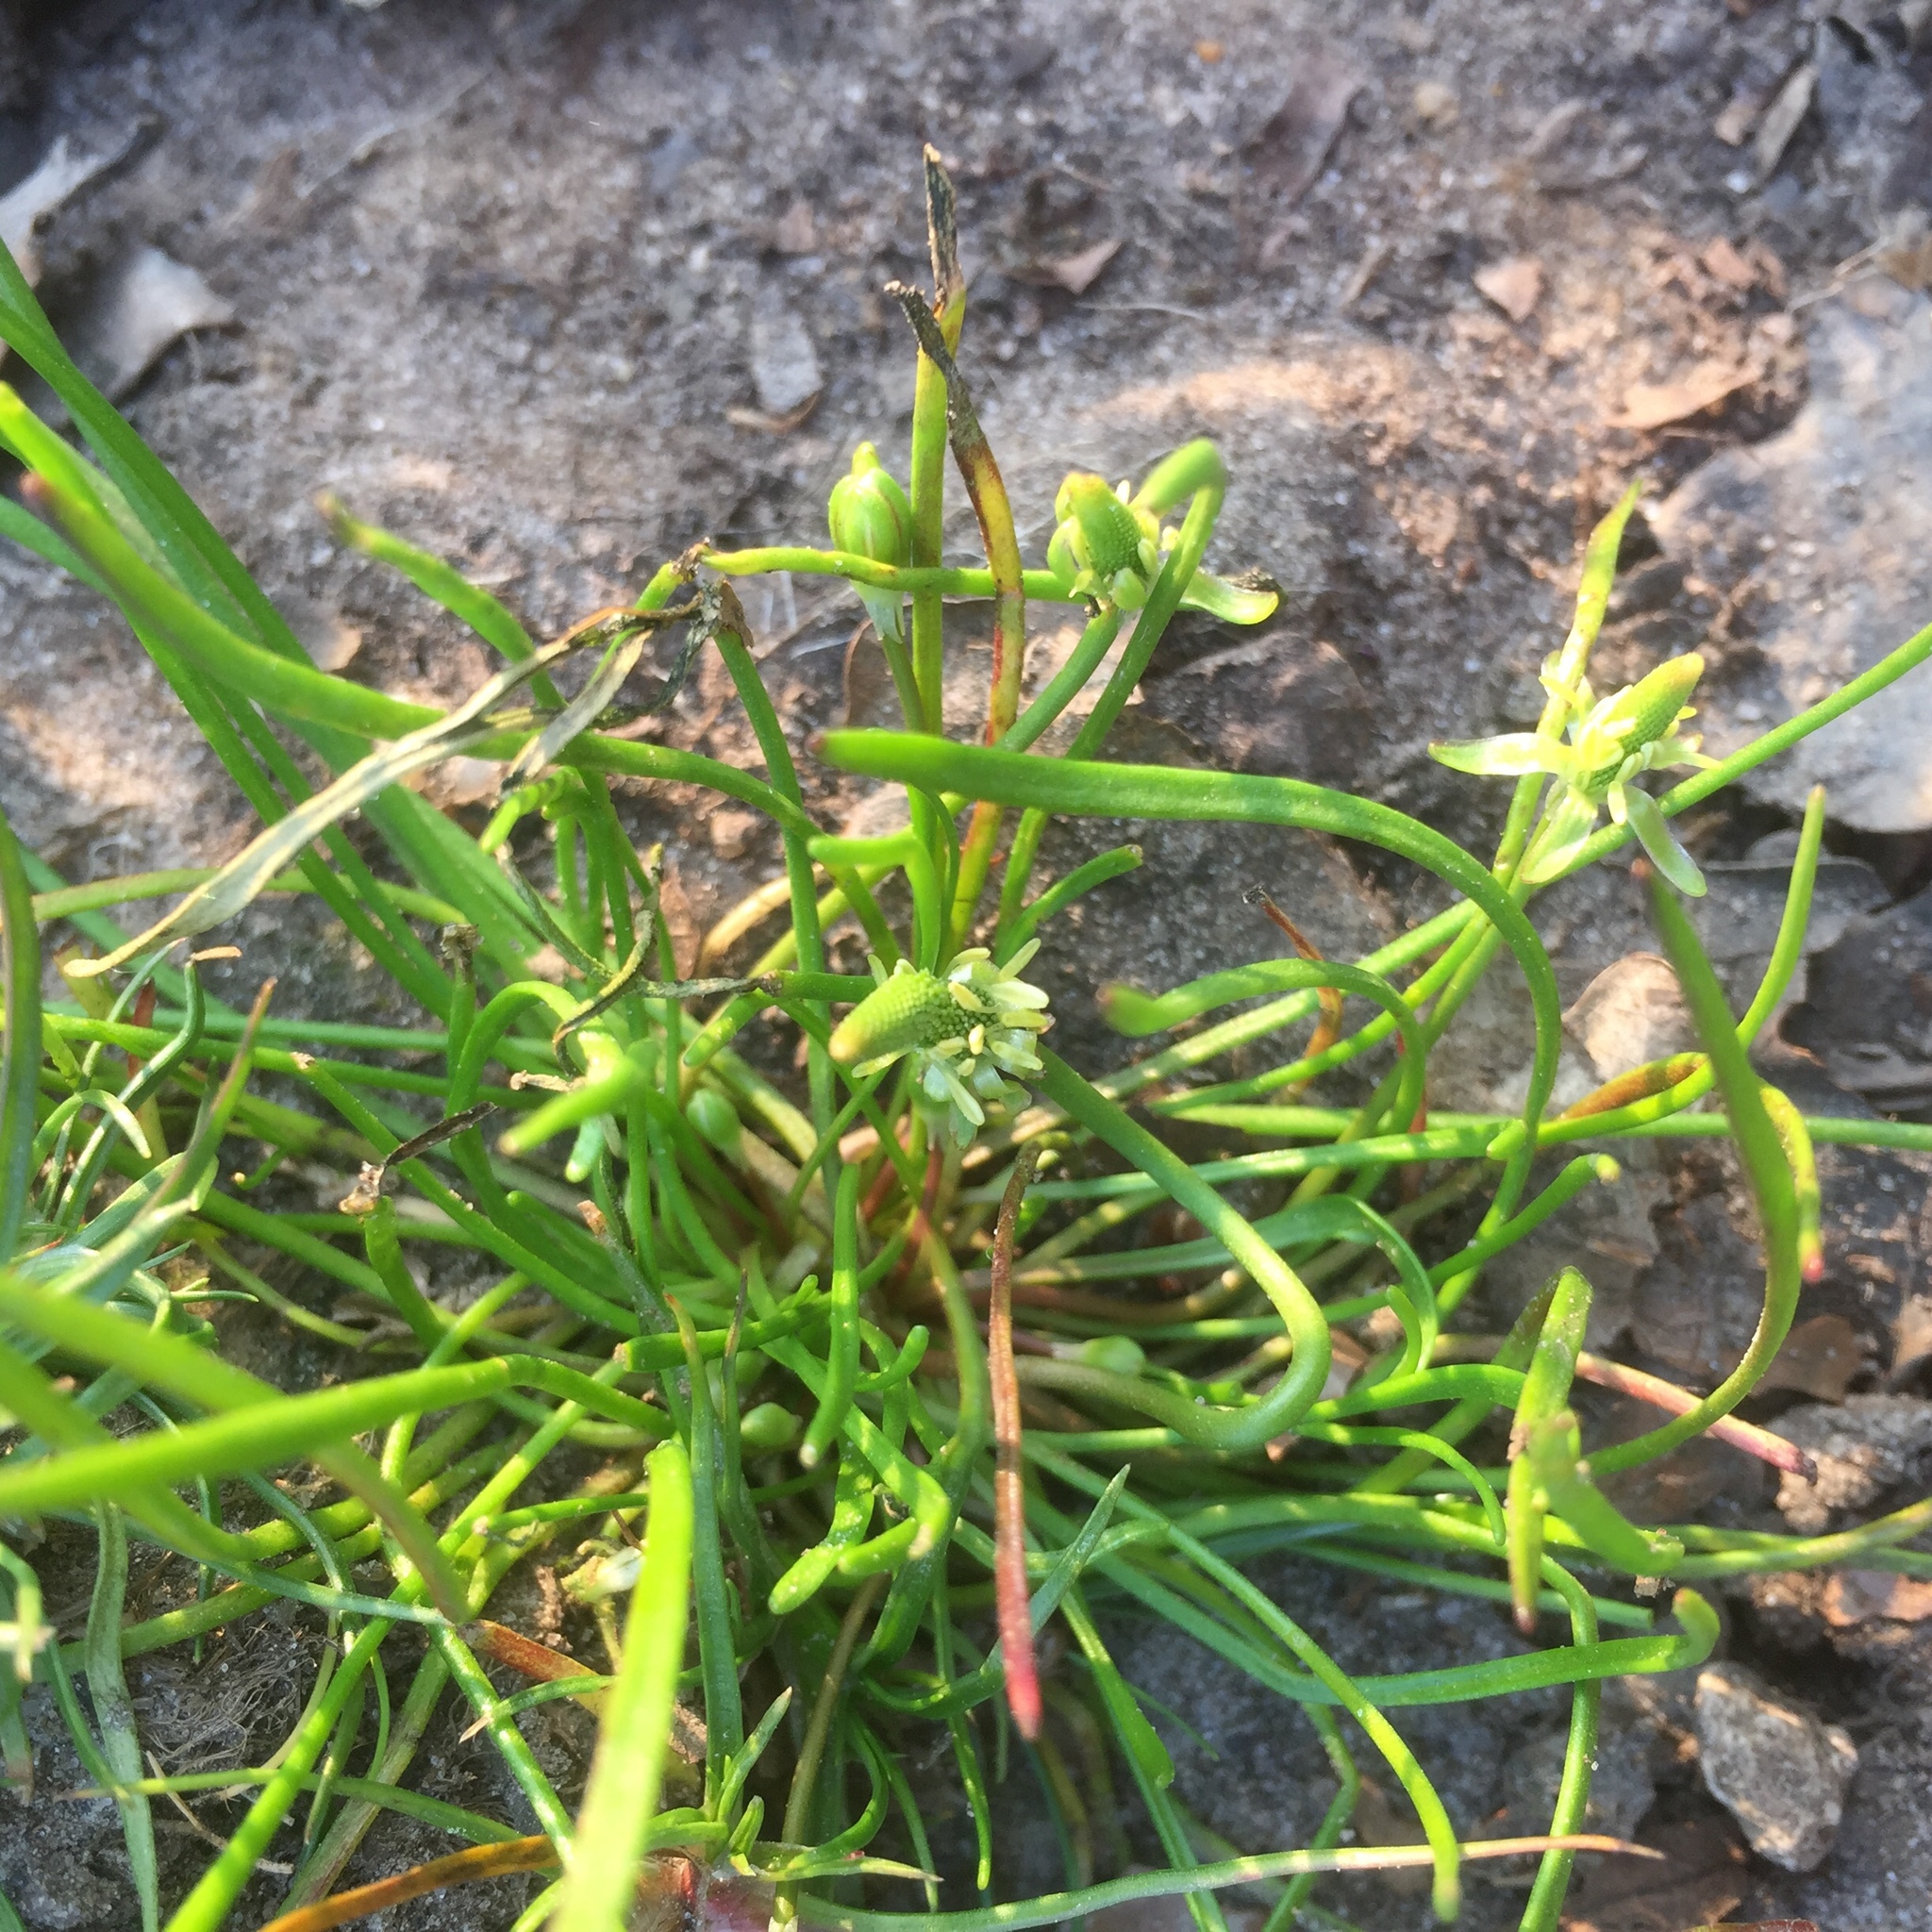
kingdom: Plantae
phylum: Tracheophyta
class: Magnoliopsida
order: Ranunculales
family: Ranunculaceae
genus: Myosurus
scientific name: Myosurus minimus
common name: Mousetail
